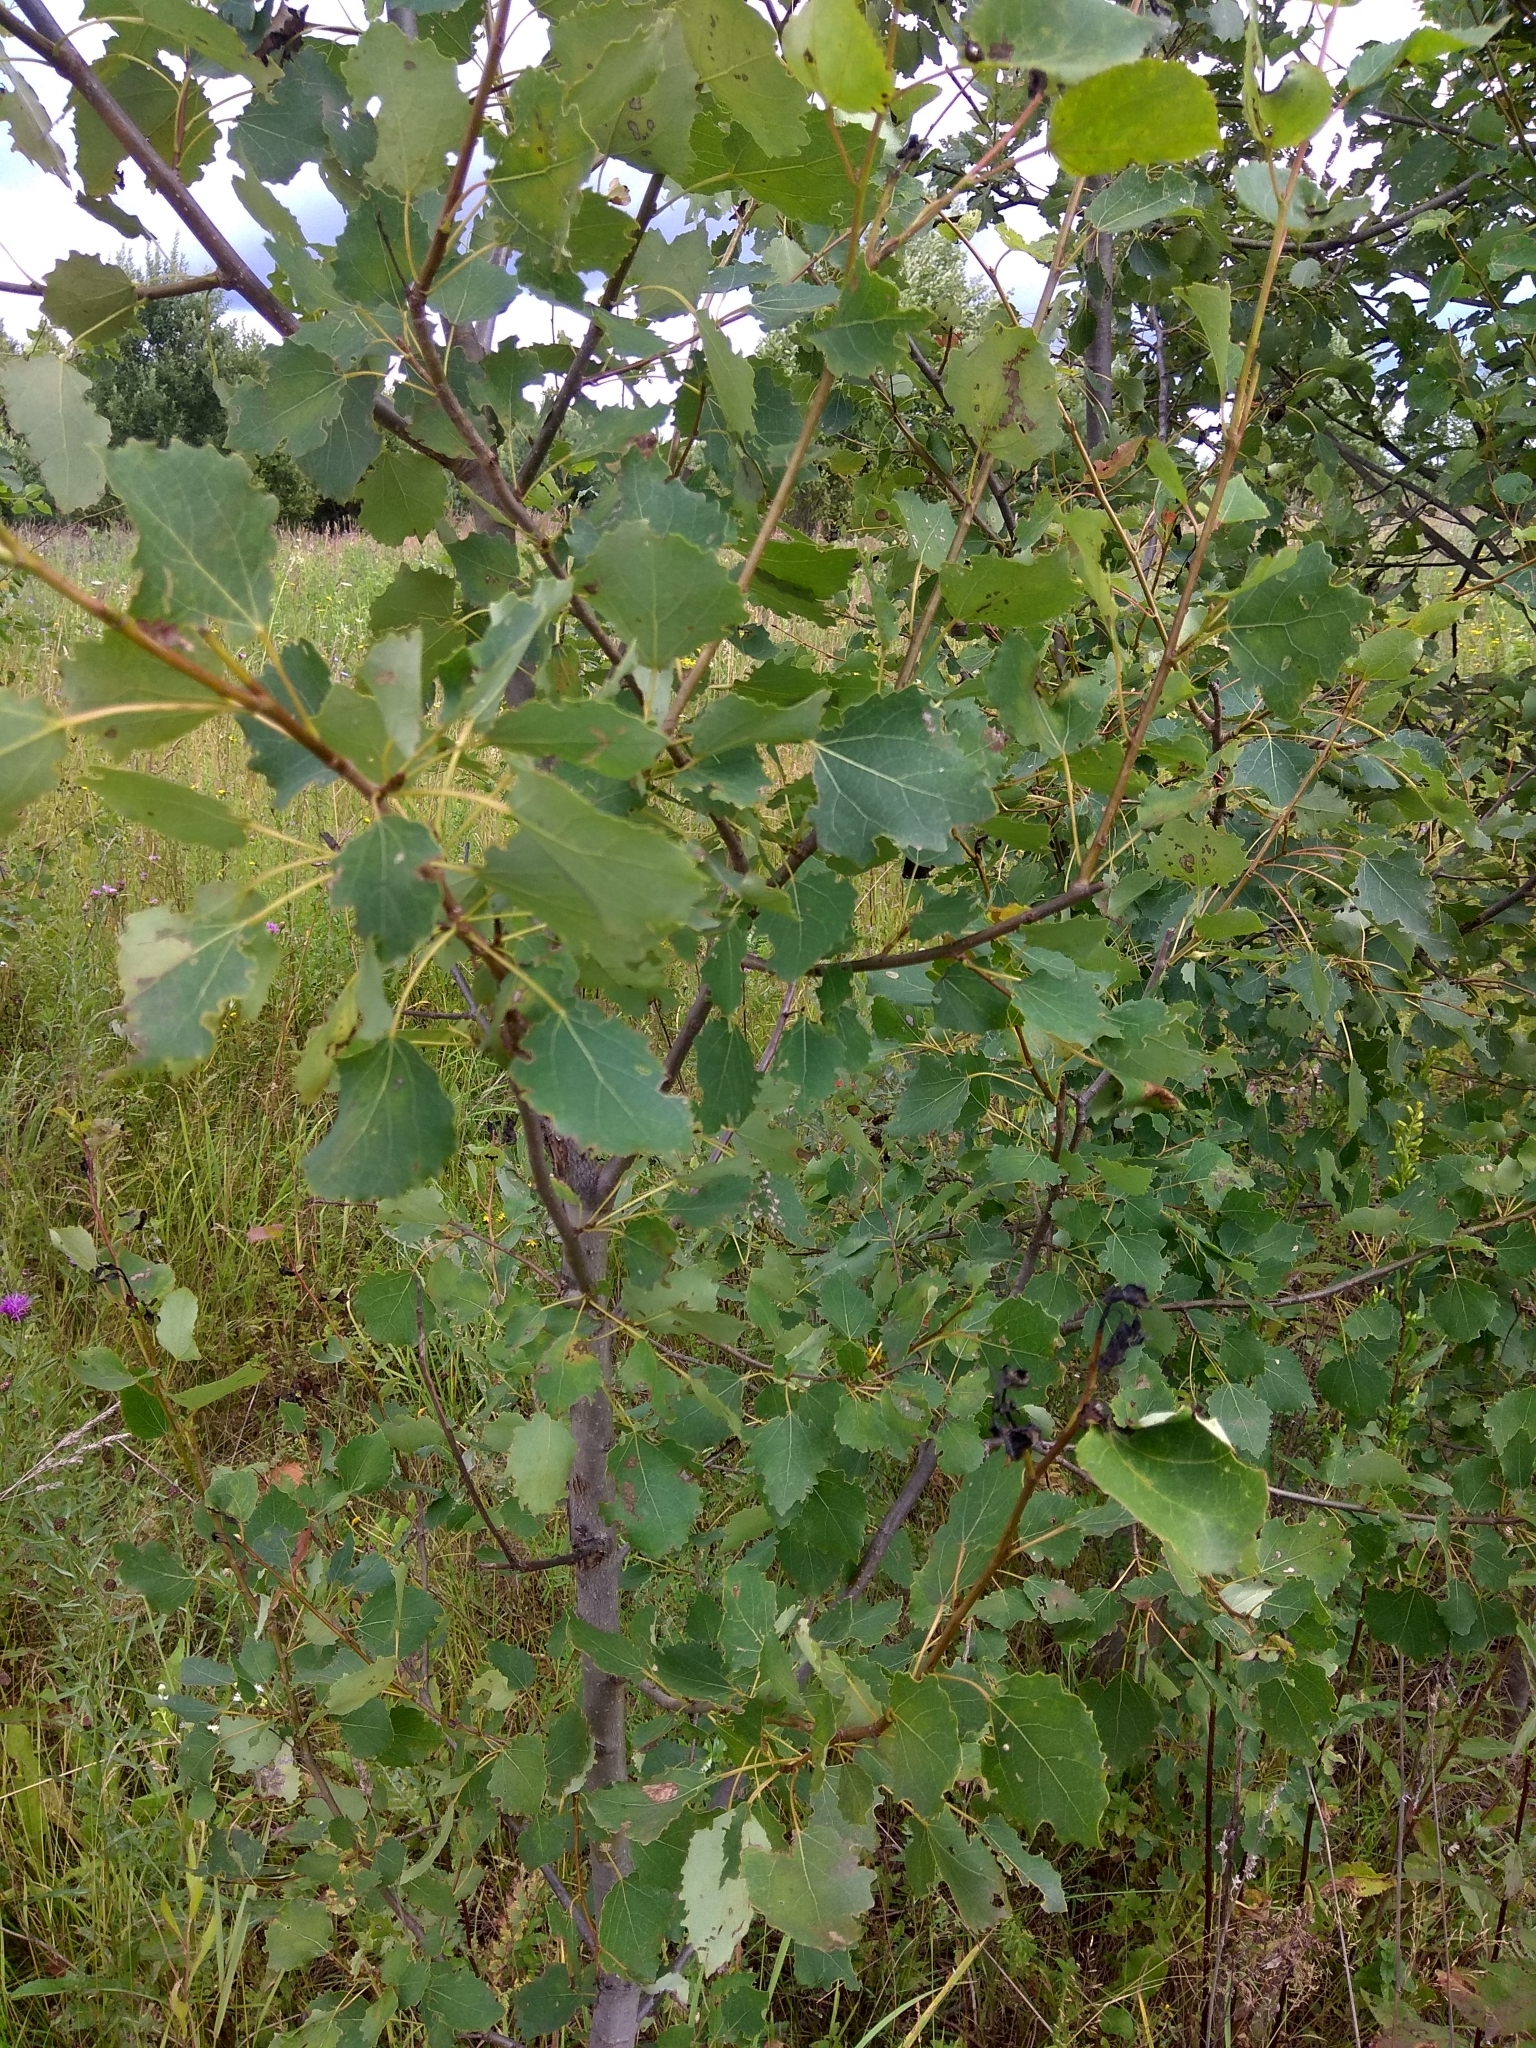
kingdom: Plantae
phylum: Tracheophyta
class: Magnoliopsida
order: Malpighiales
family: Salicaceae
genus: Populus
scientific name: Populus tremula
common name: European aspen
